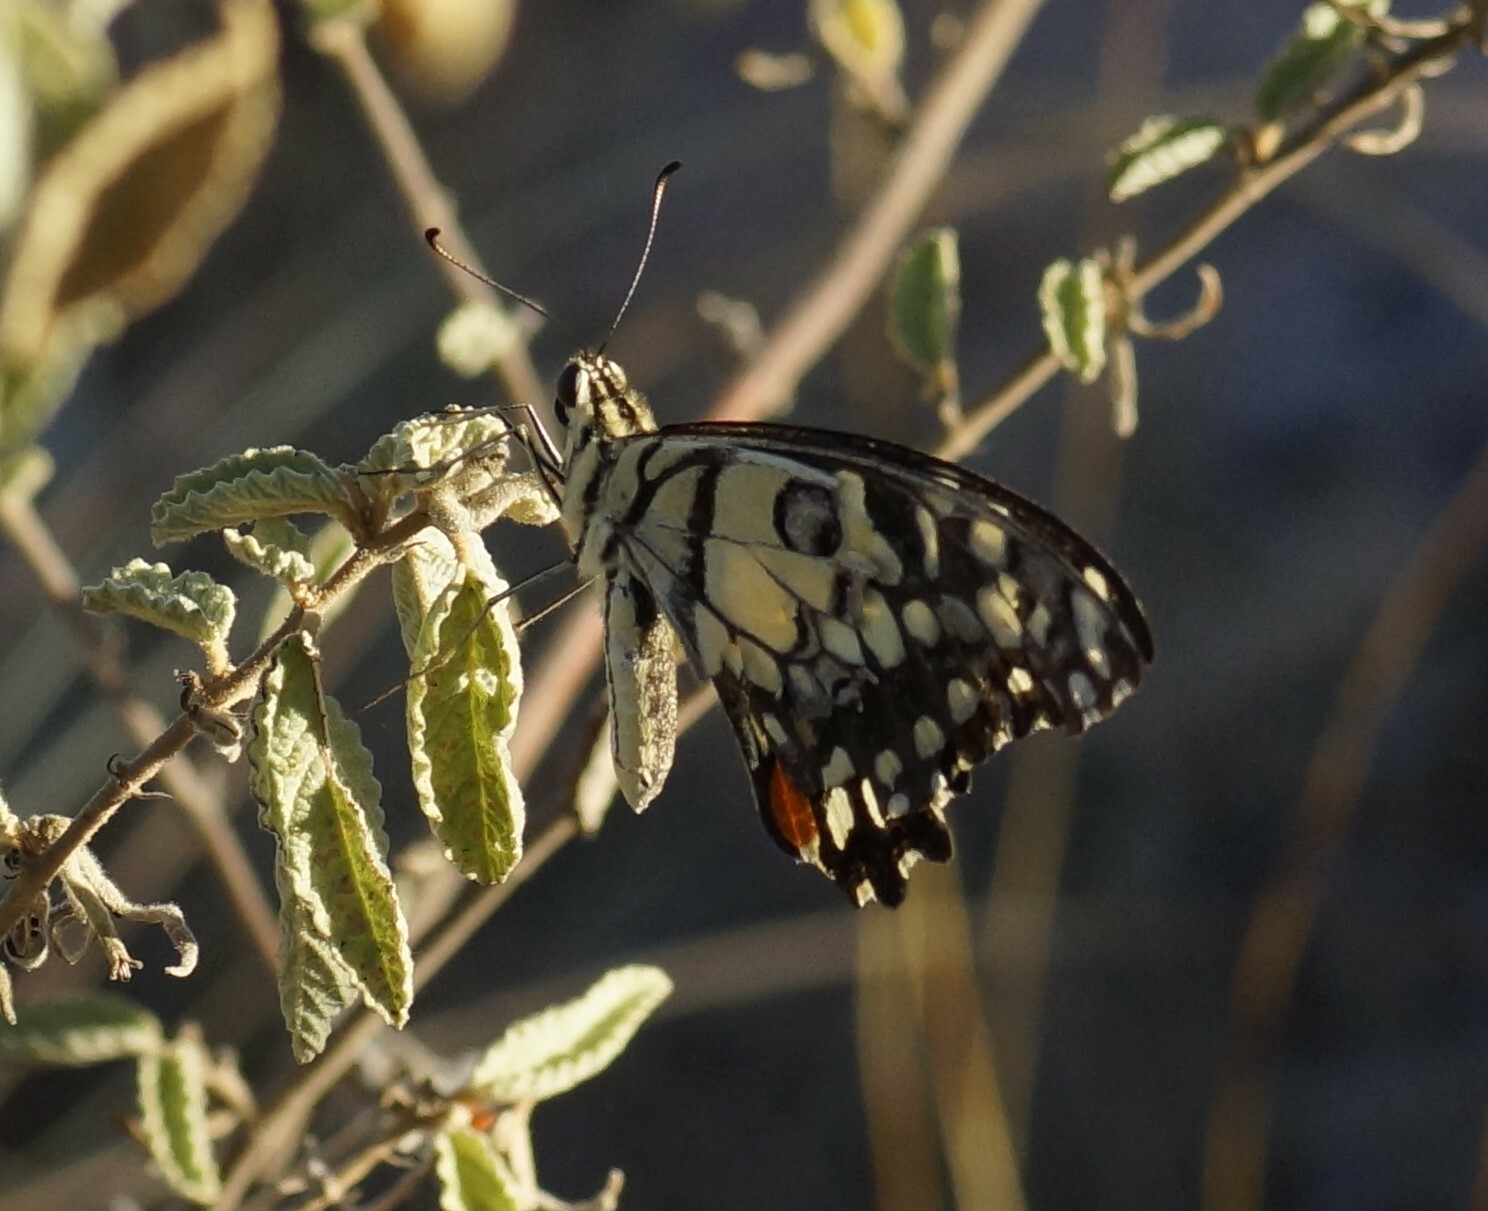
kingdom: Animalia
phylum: Arthropoda
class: Insecta
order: Lepidoptera
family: Papilionidae
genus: Papilio
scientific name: Papilio demoleus
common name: Lime butterfly
